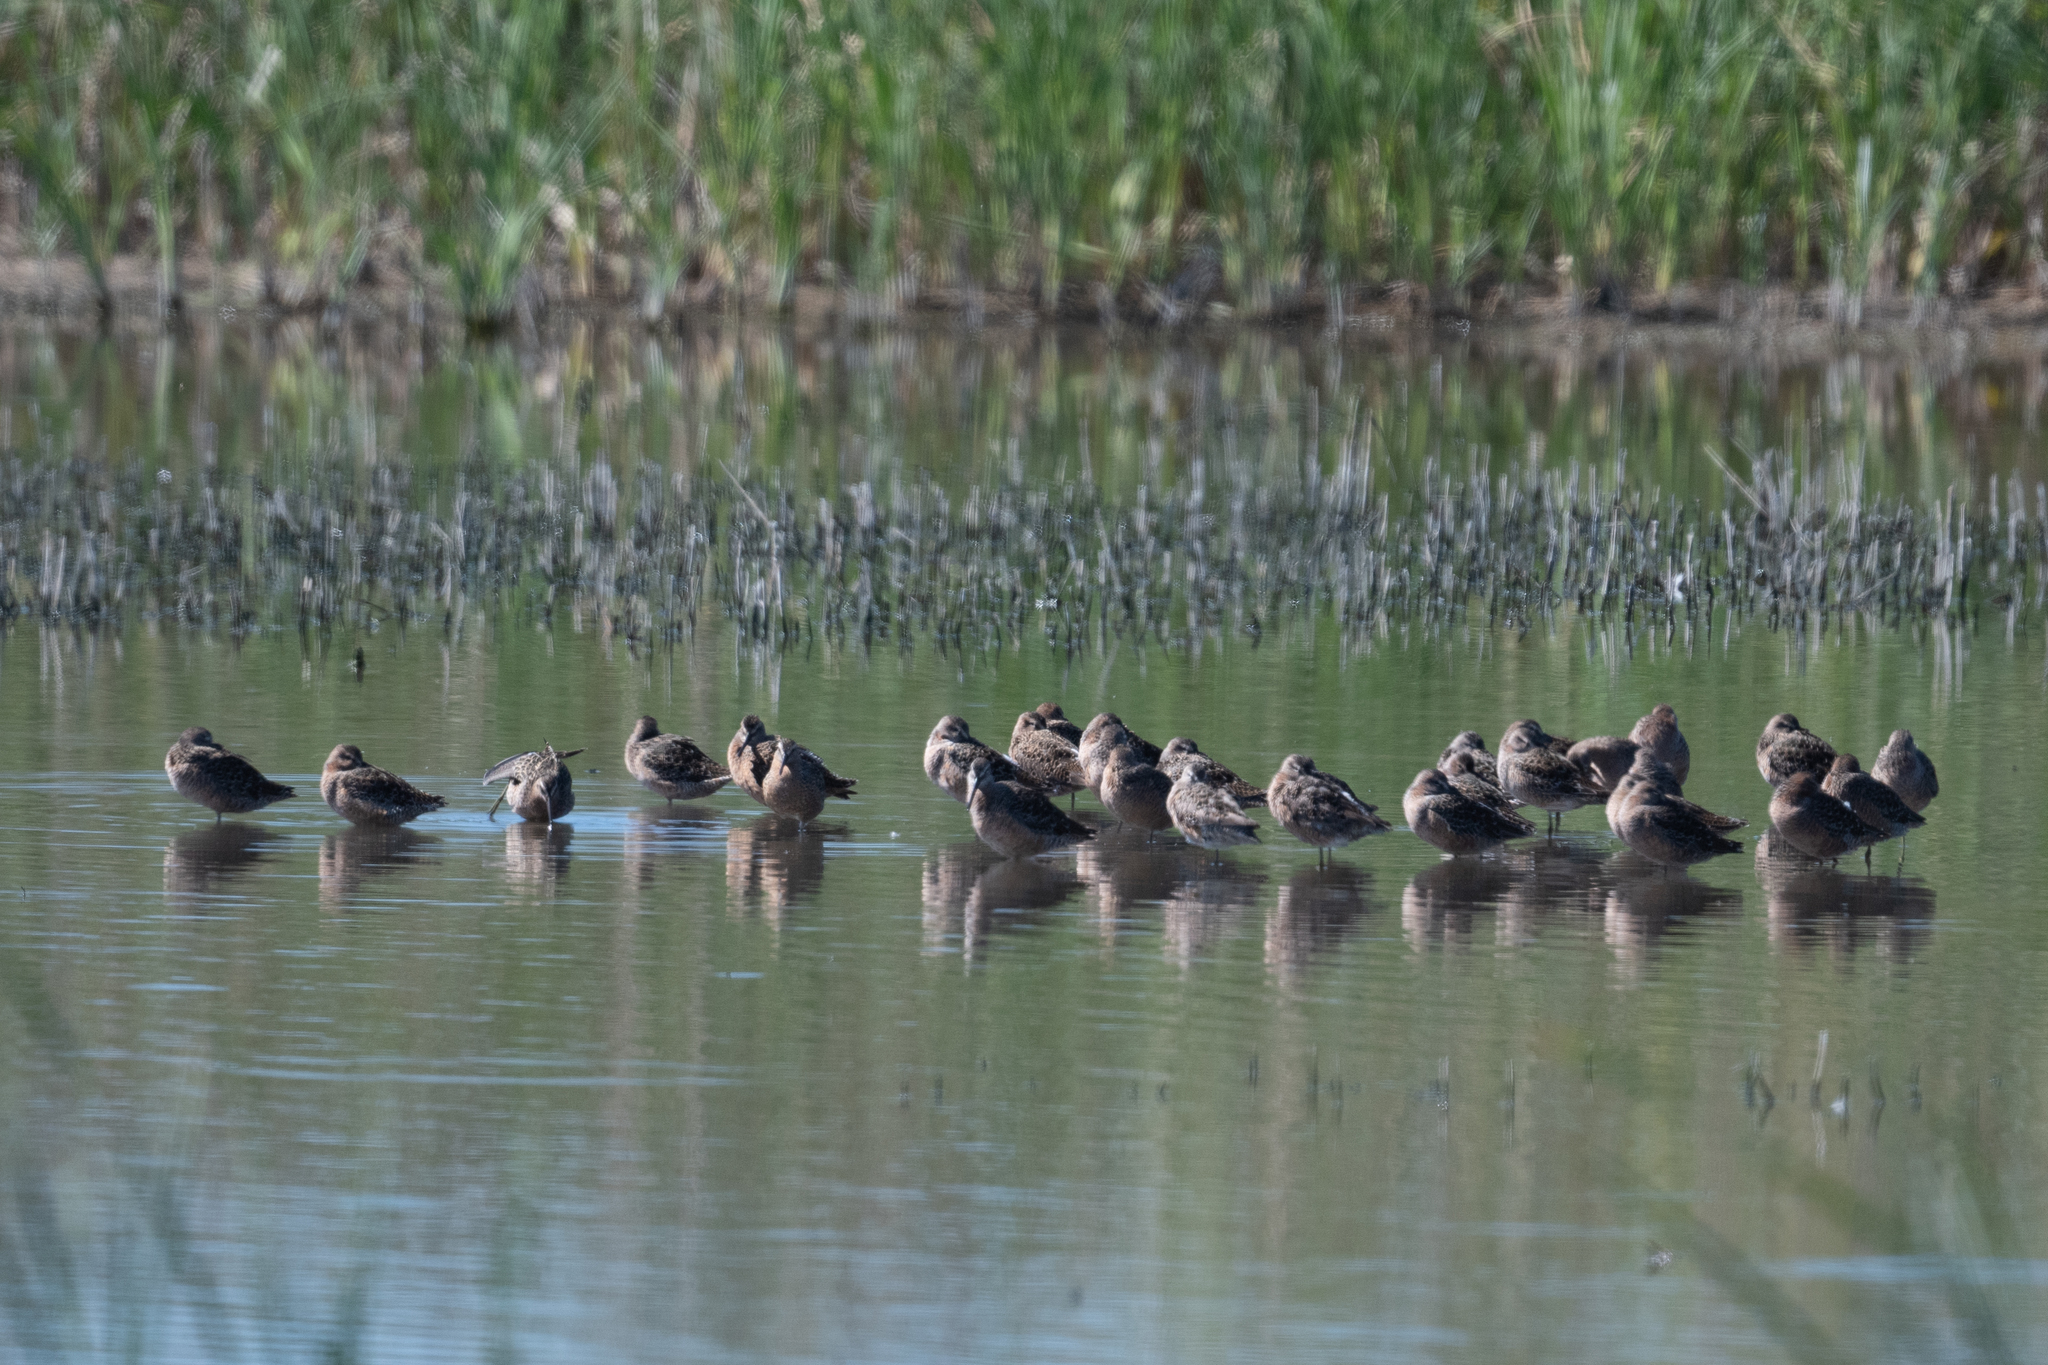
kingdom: Animalia
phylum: Chordata
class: Aves
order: Charadriiformes
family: Scolopacidae
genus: Limnodromus
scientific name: Limnodromus scolopaceus
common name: Long-billed dowitcher
